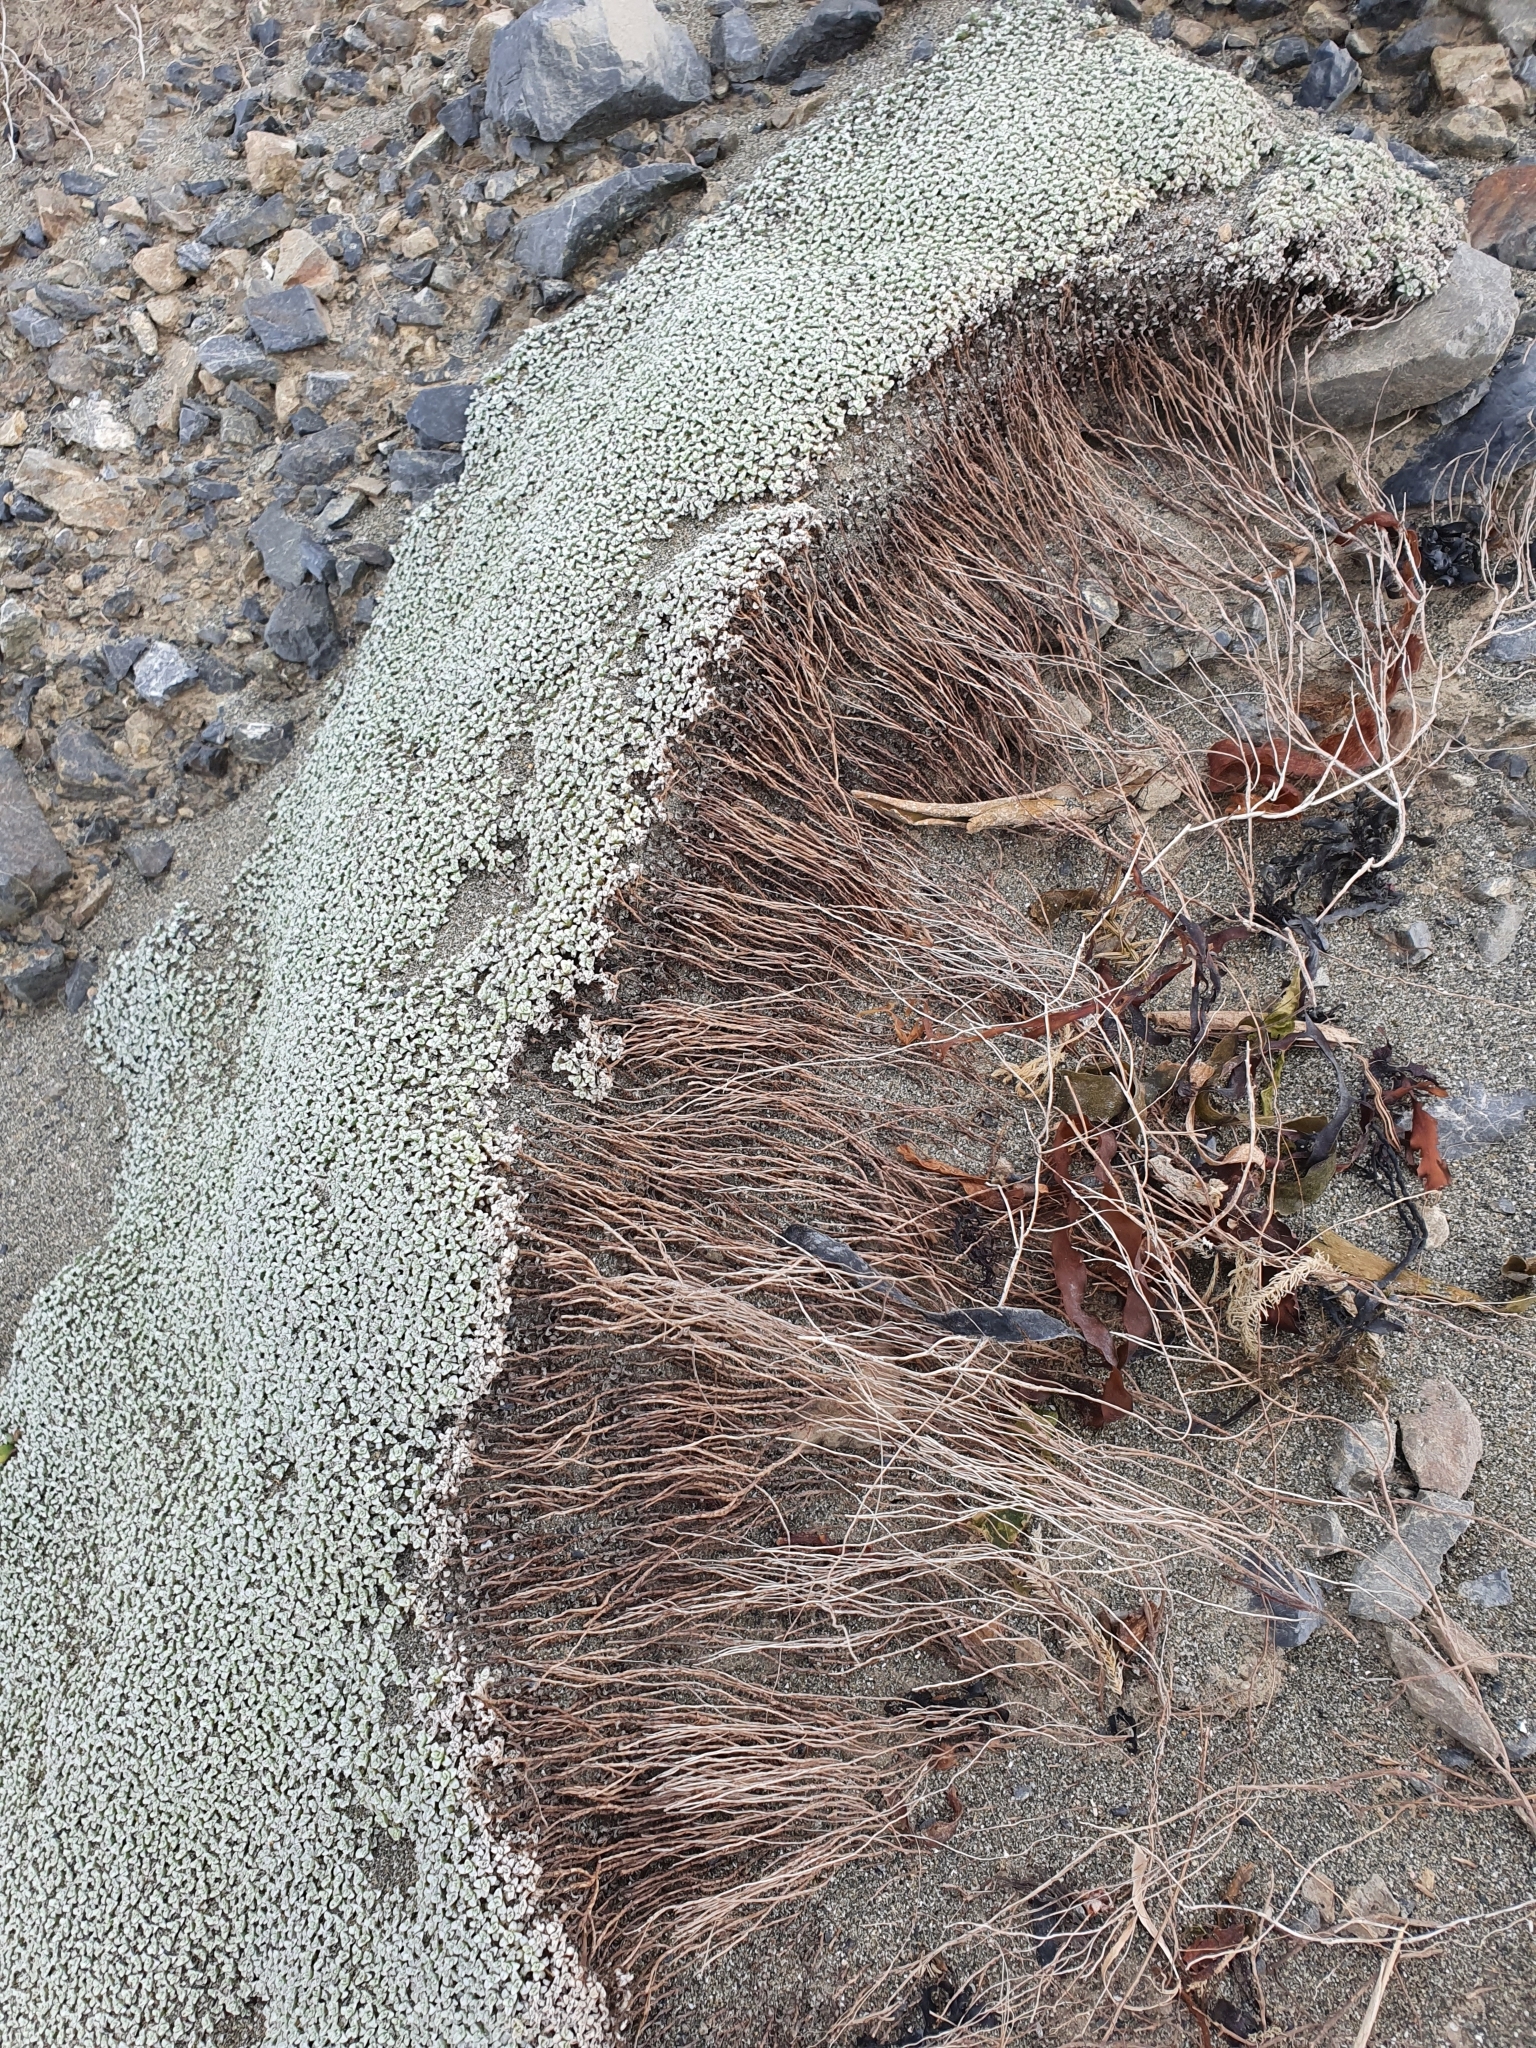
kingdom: Plantae
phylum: Tracheophyta
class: Magnoliopsida
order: Asterales
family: Asteraceae
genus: Raoulia
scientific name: Raoulia hookeri
